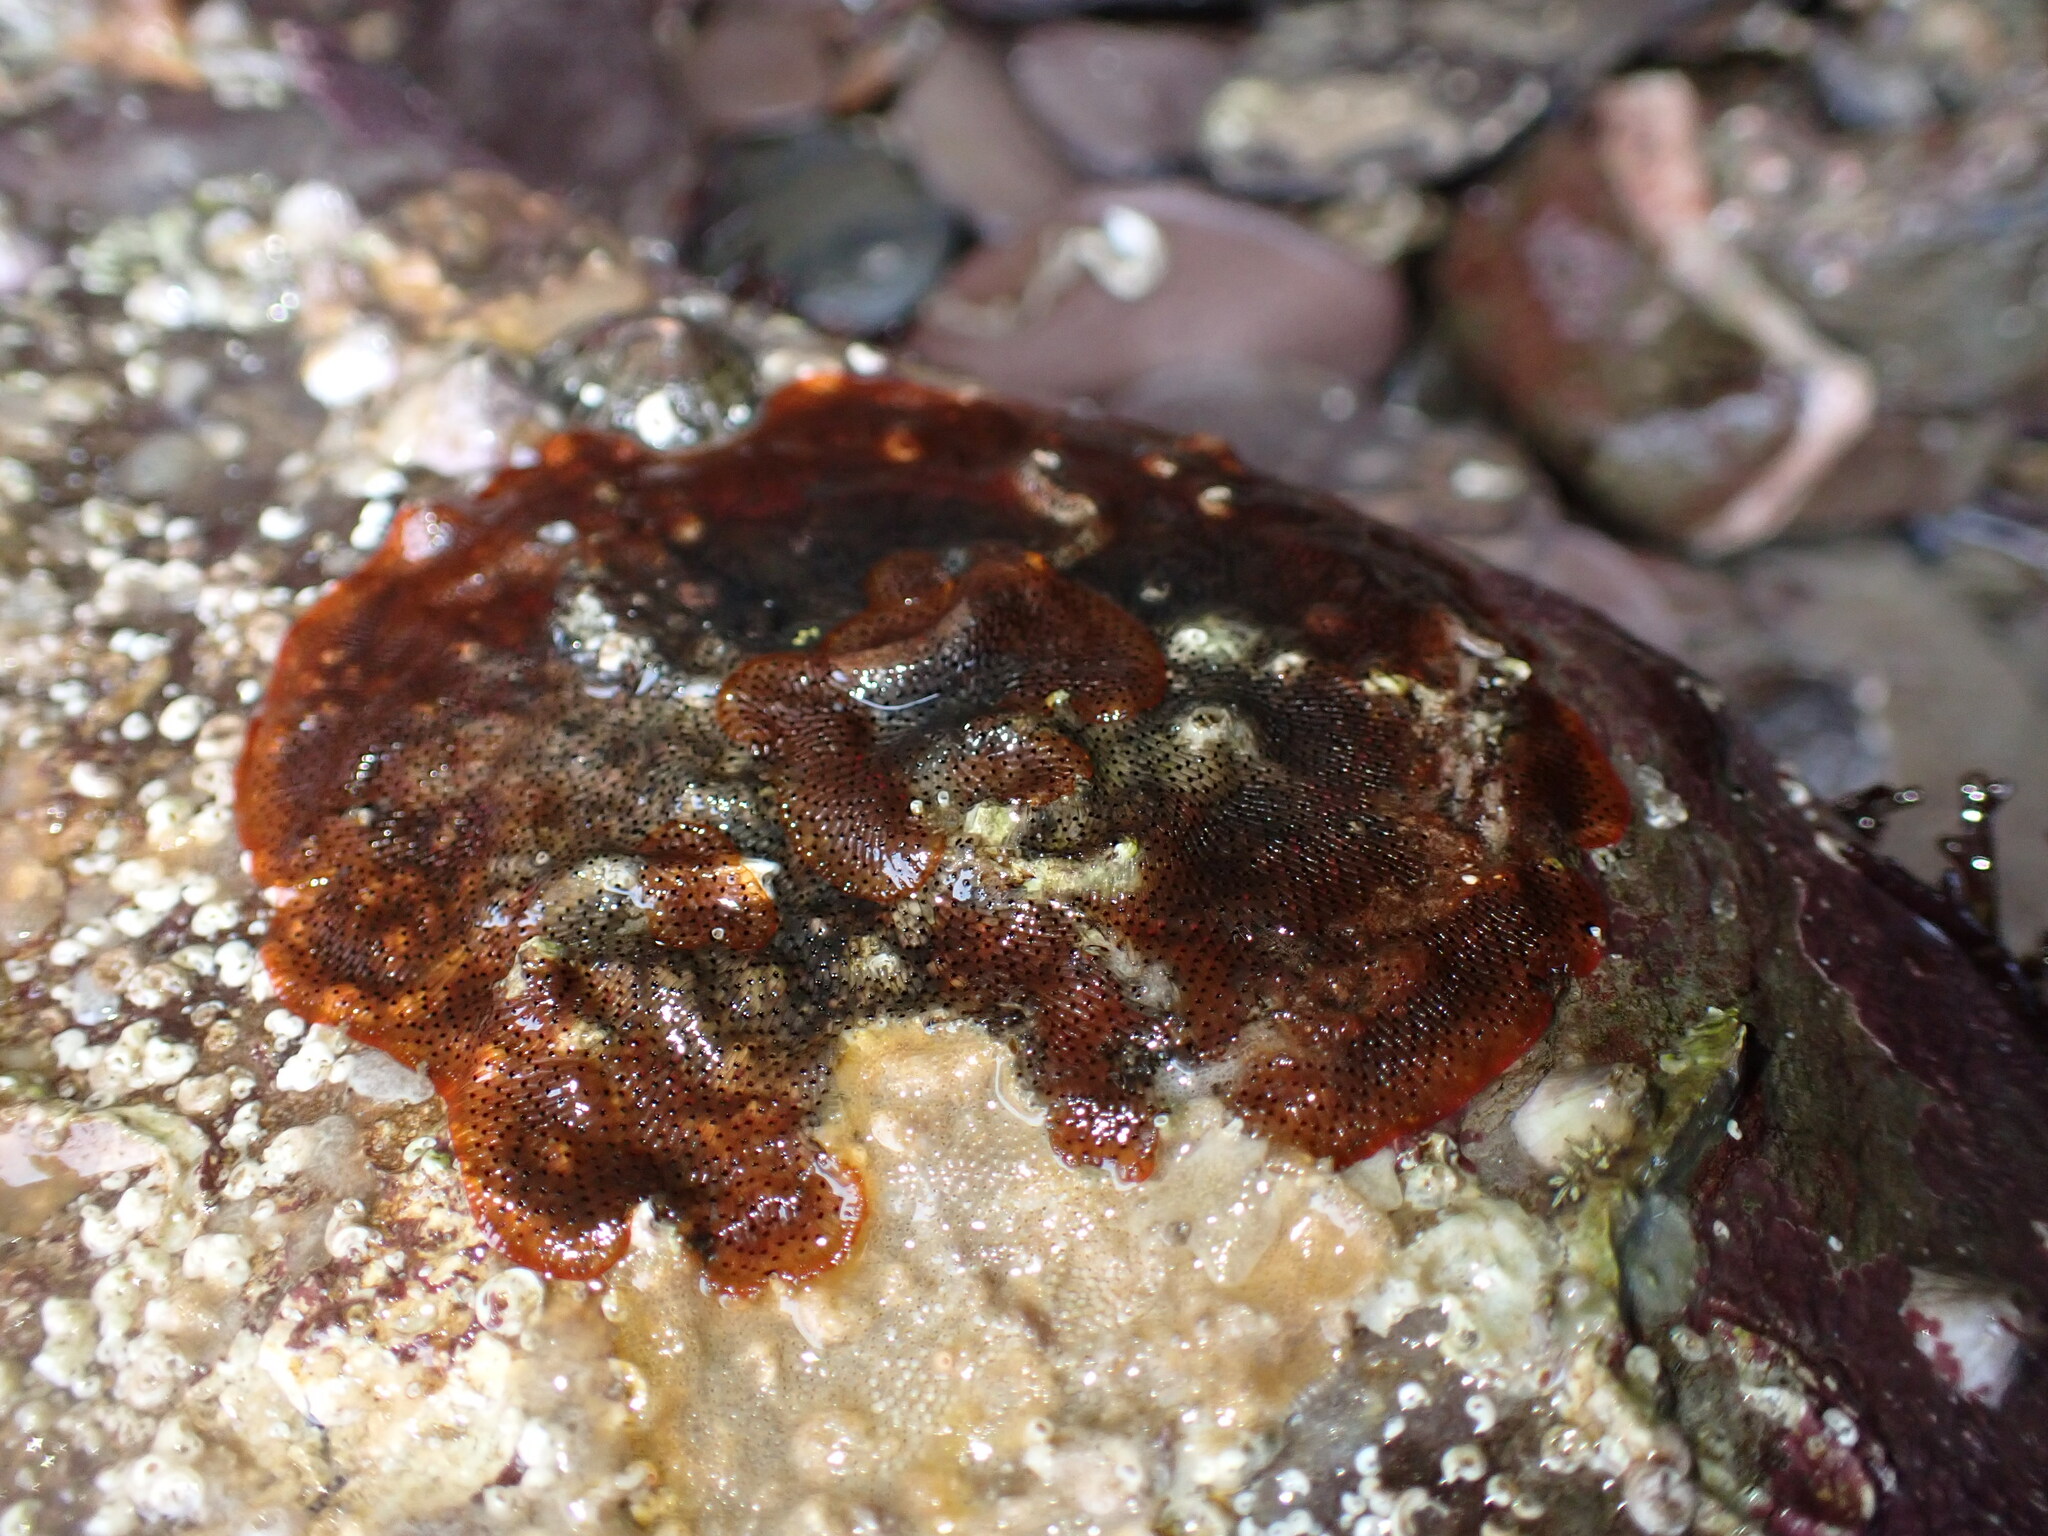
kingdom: Animalia
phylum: Bryozoa
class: Gymnolaemata
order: Cheilostomatida
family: Watersiporidae
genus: Watersipora
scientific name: Watersipora subatra
